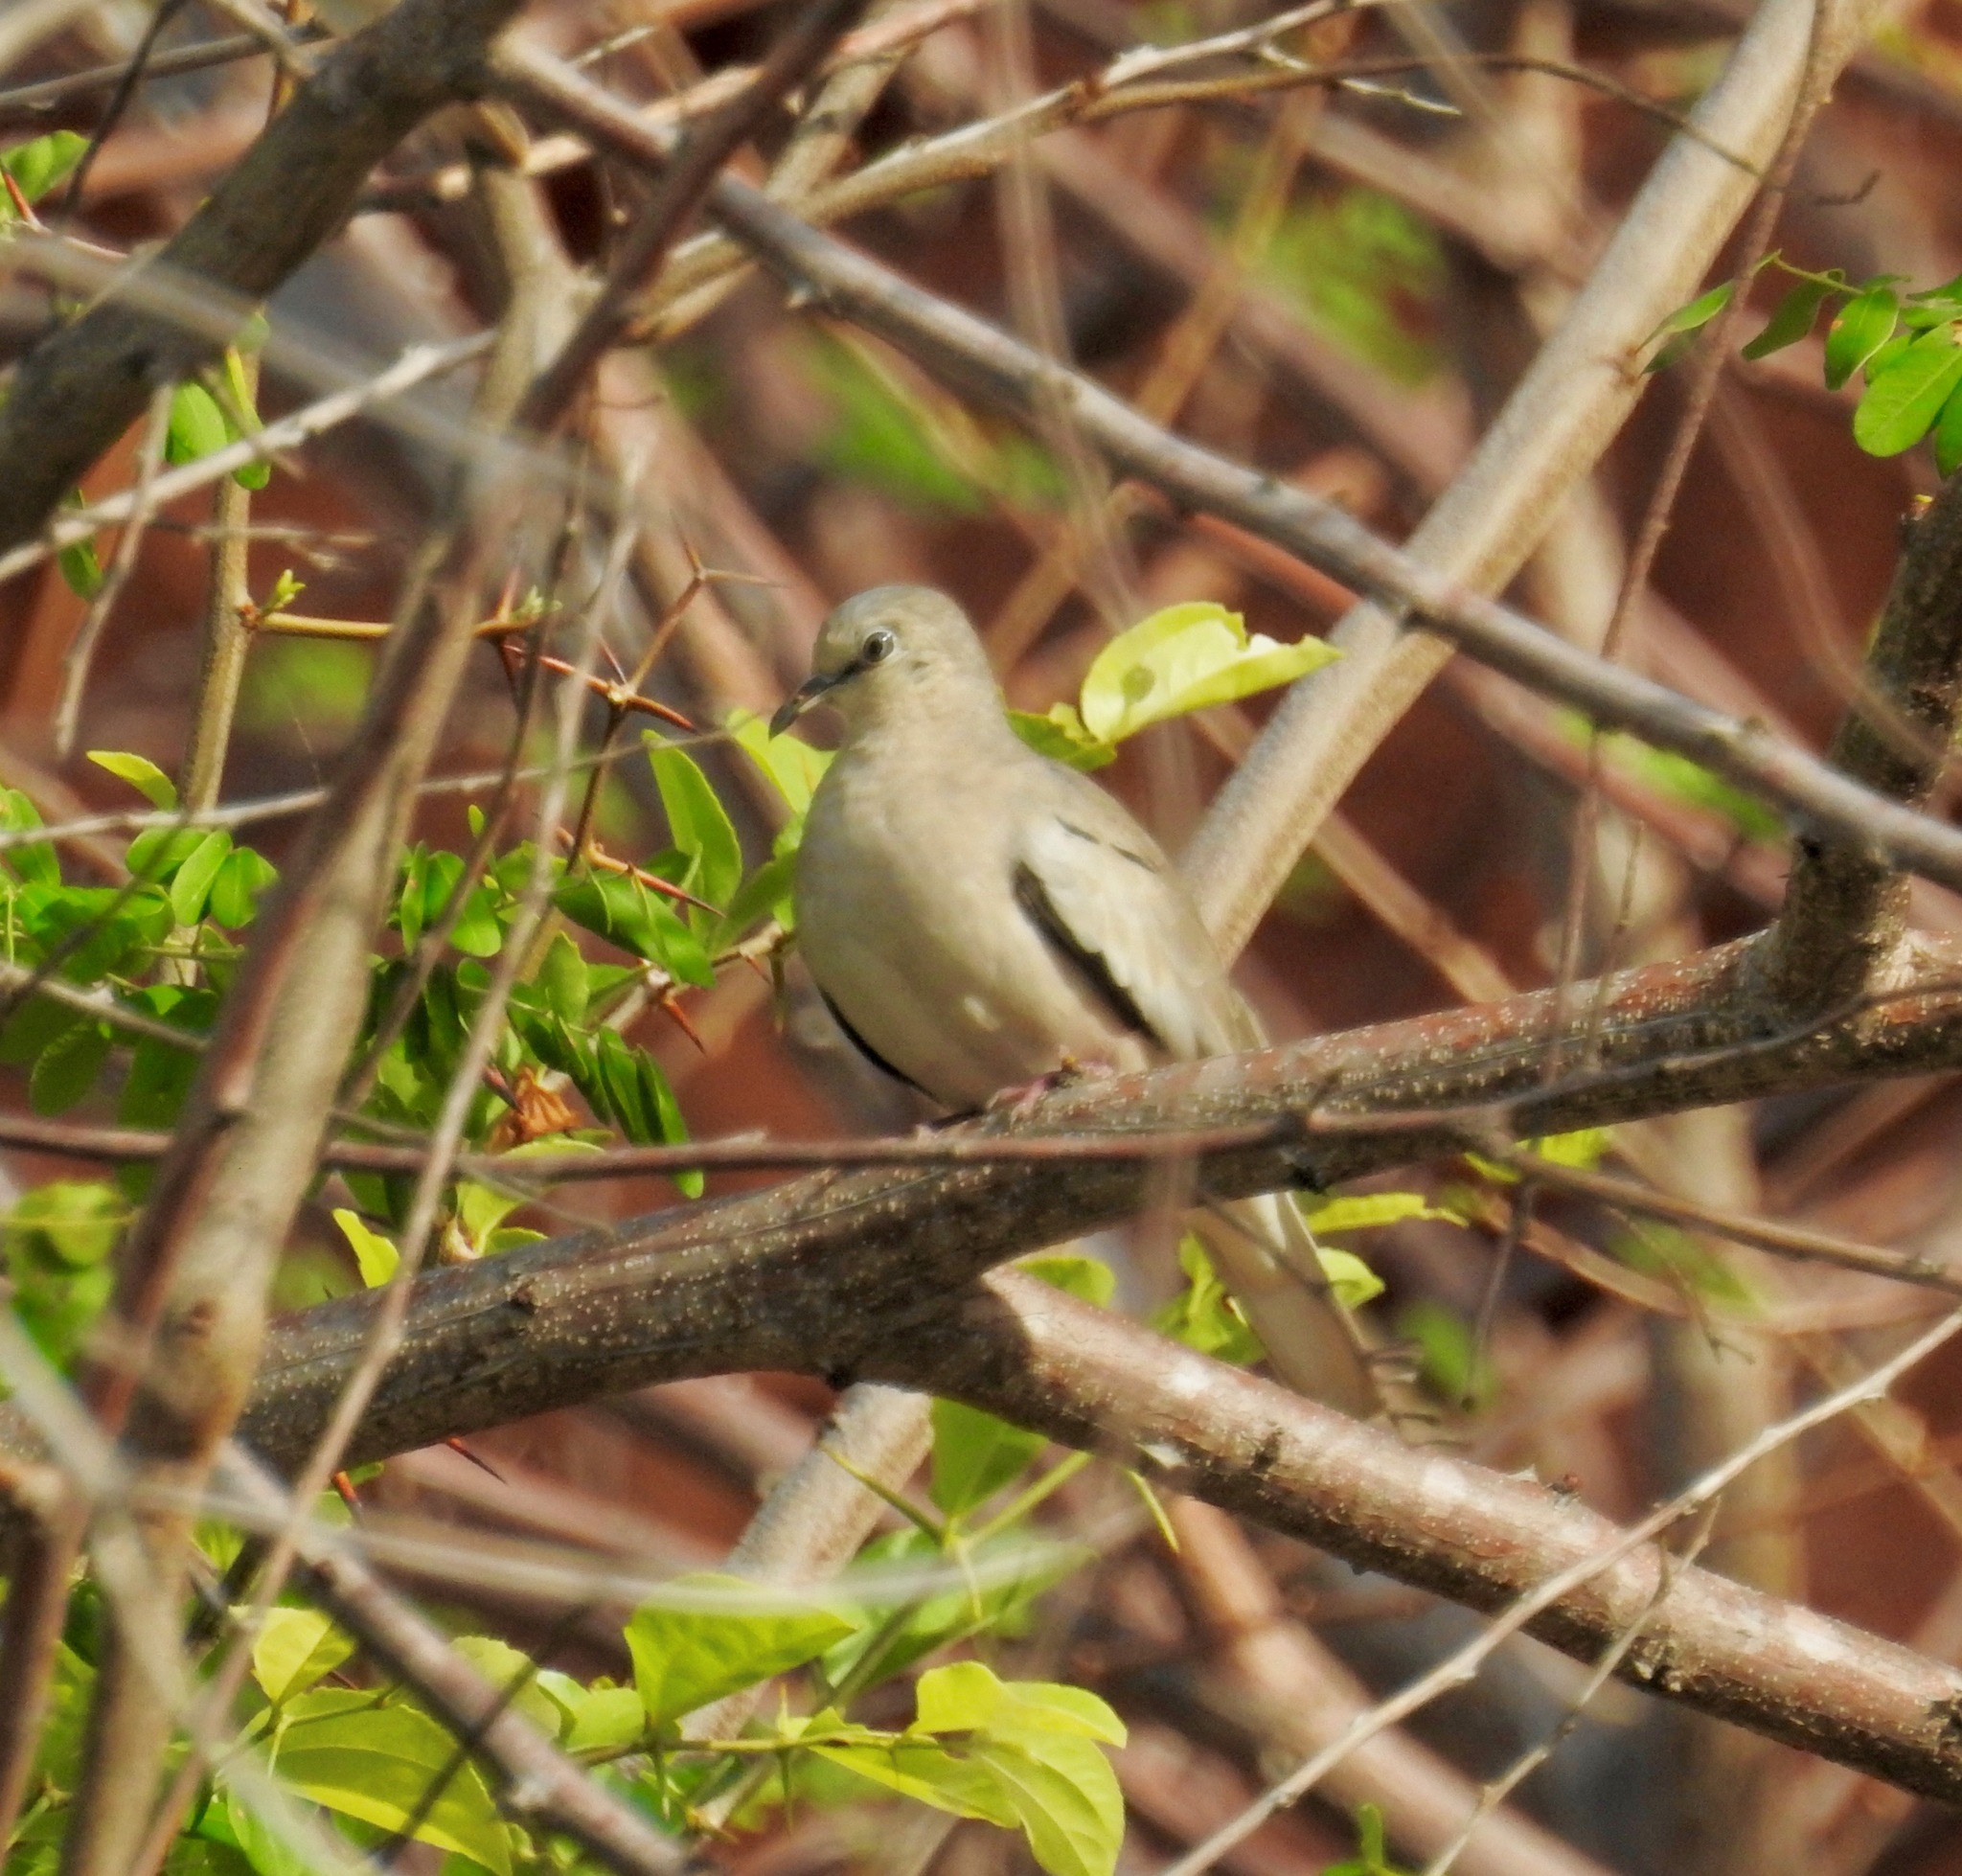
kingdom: Animalia
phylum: Chordata
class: Aves
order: Columbiformes
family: Columbidae
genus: Columbina
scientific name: Columbina picui
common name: Picui ground dove
